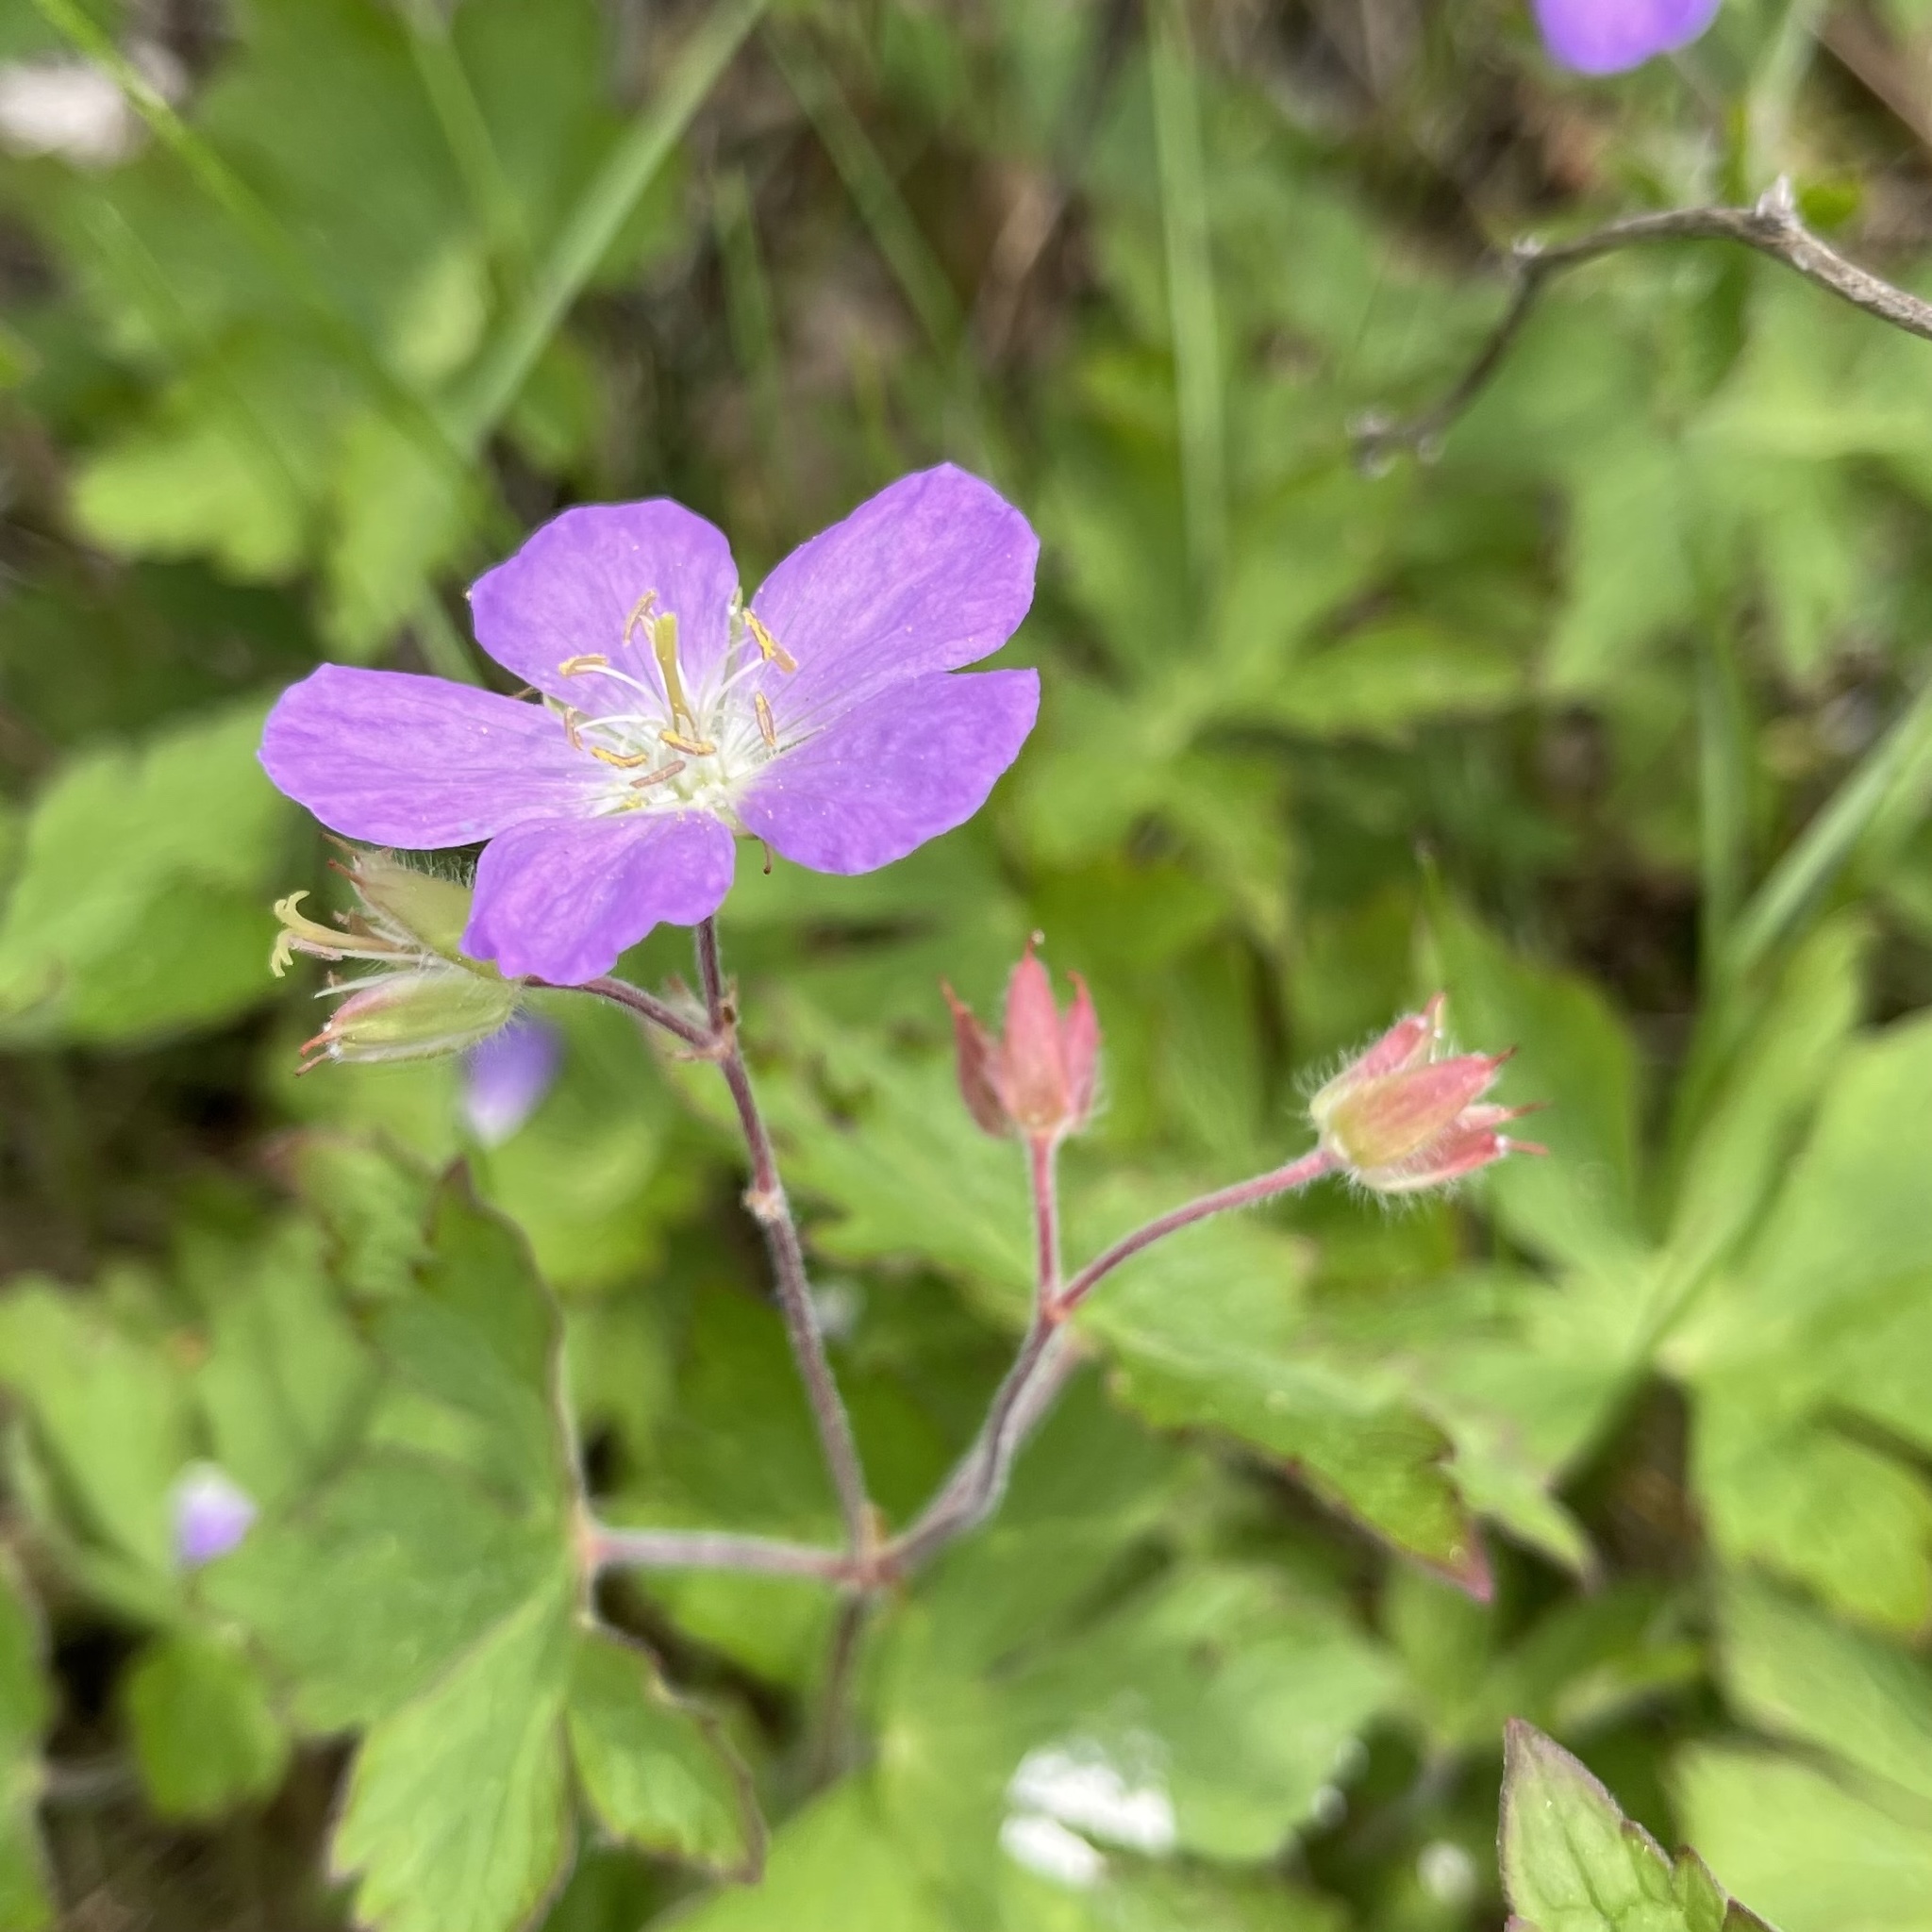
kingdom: Plantae
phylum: Tracheophyta
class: Magnoliopsida
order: Geraniales
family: Geraniaceae
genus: Geranium
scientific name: Geranium maculatum
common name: Spotted geranium
